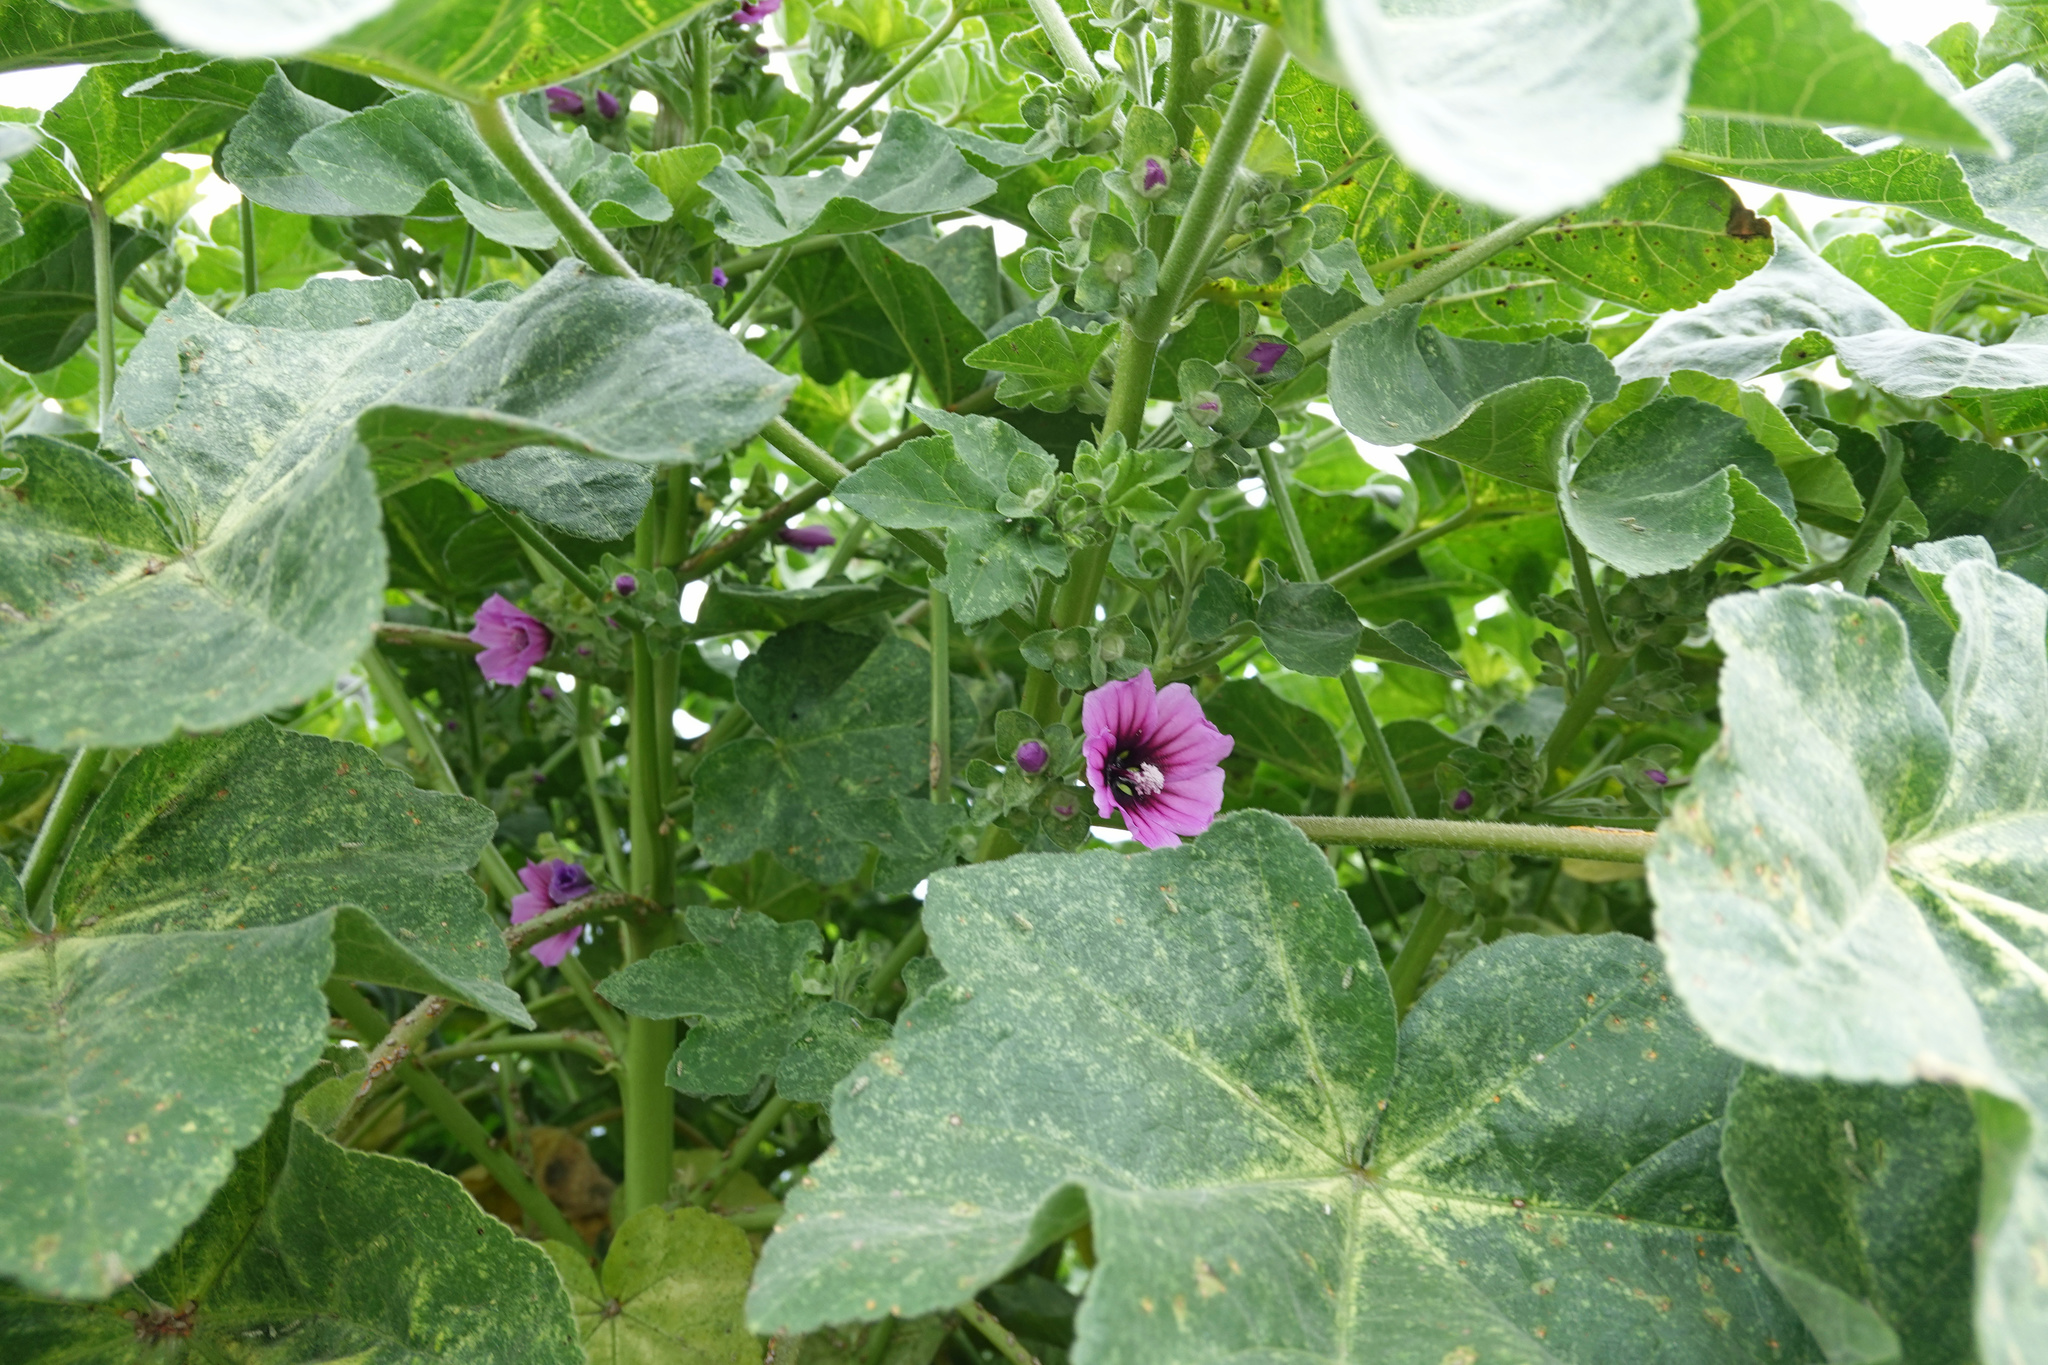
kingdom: Plantae
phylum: Tracheophyta
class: Magnoliopsida
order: Malvales
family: Malvaceae
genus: Malva
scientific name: Malva arborea
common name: Tree mallow
